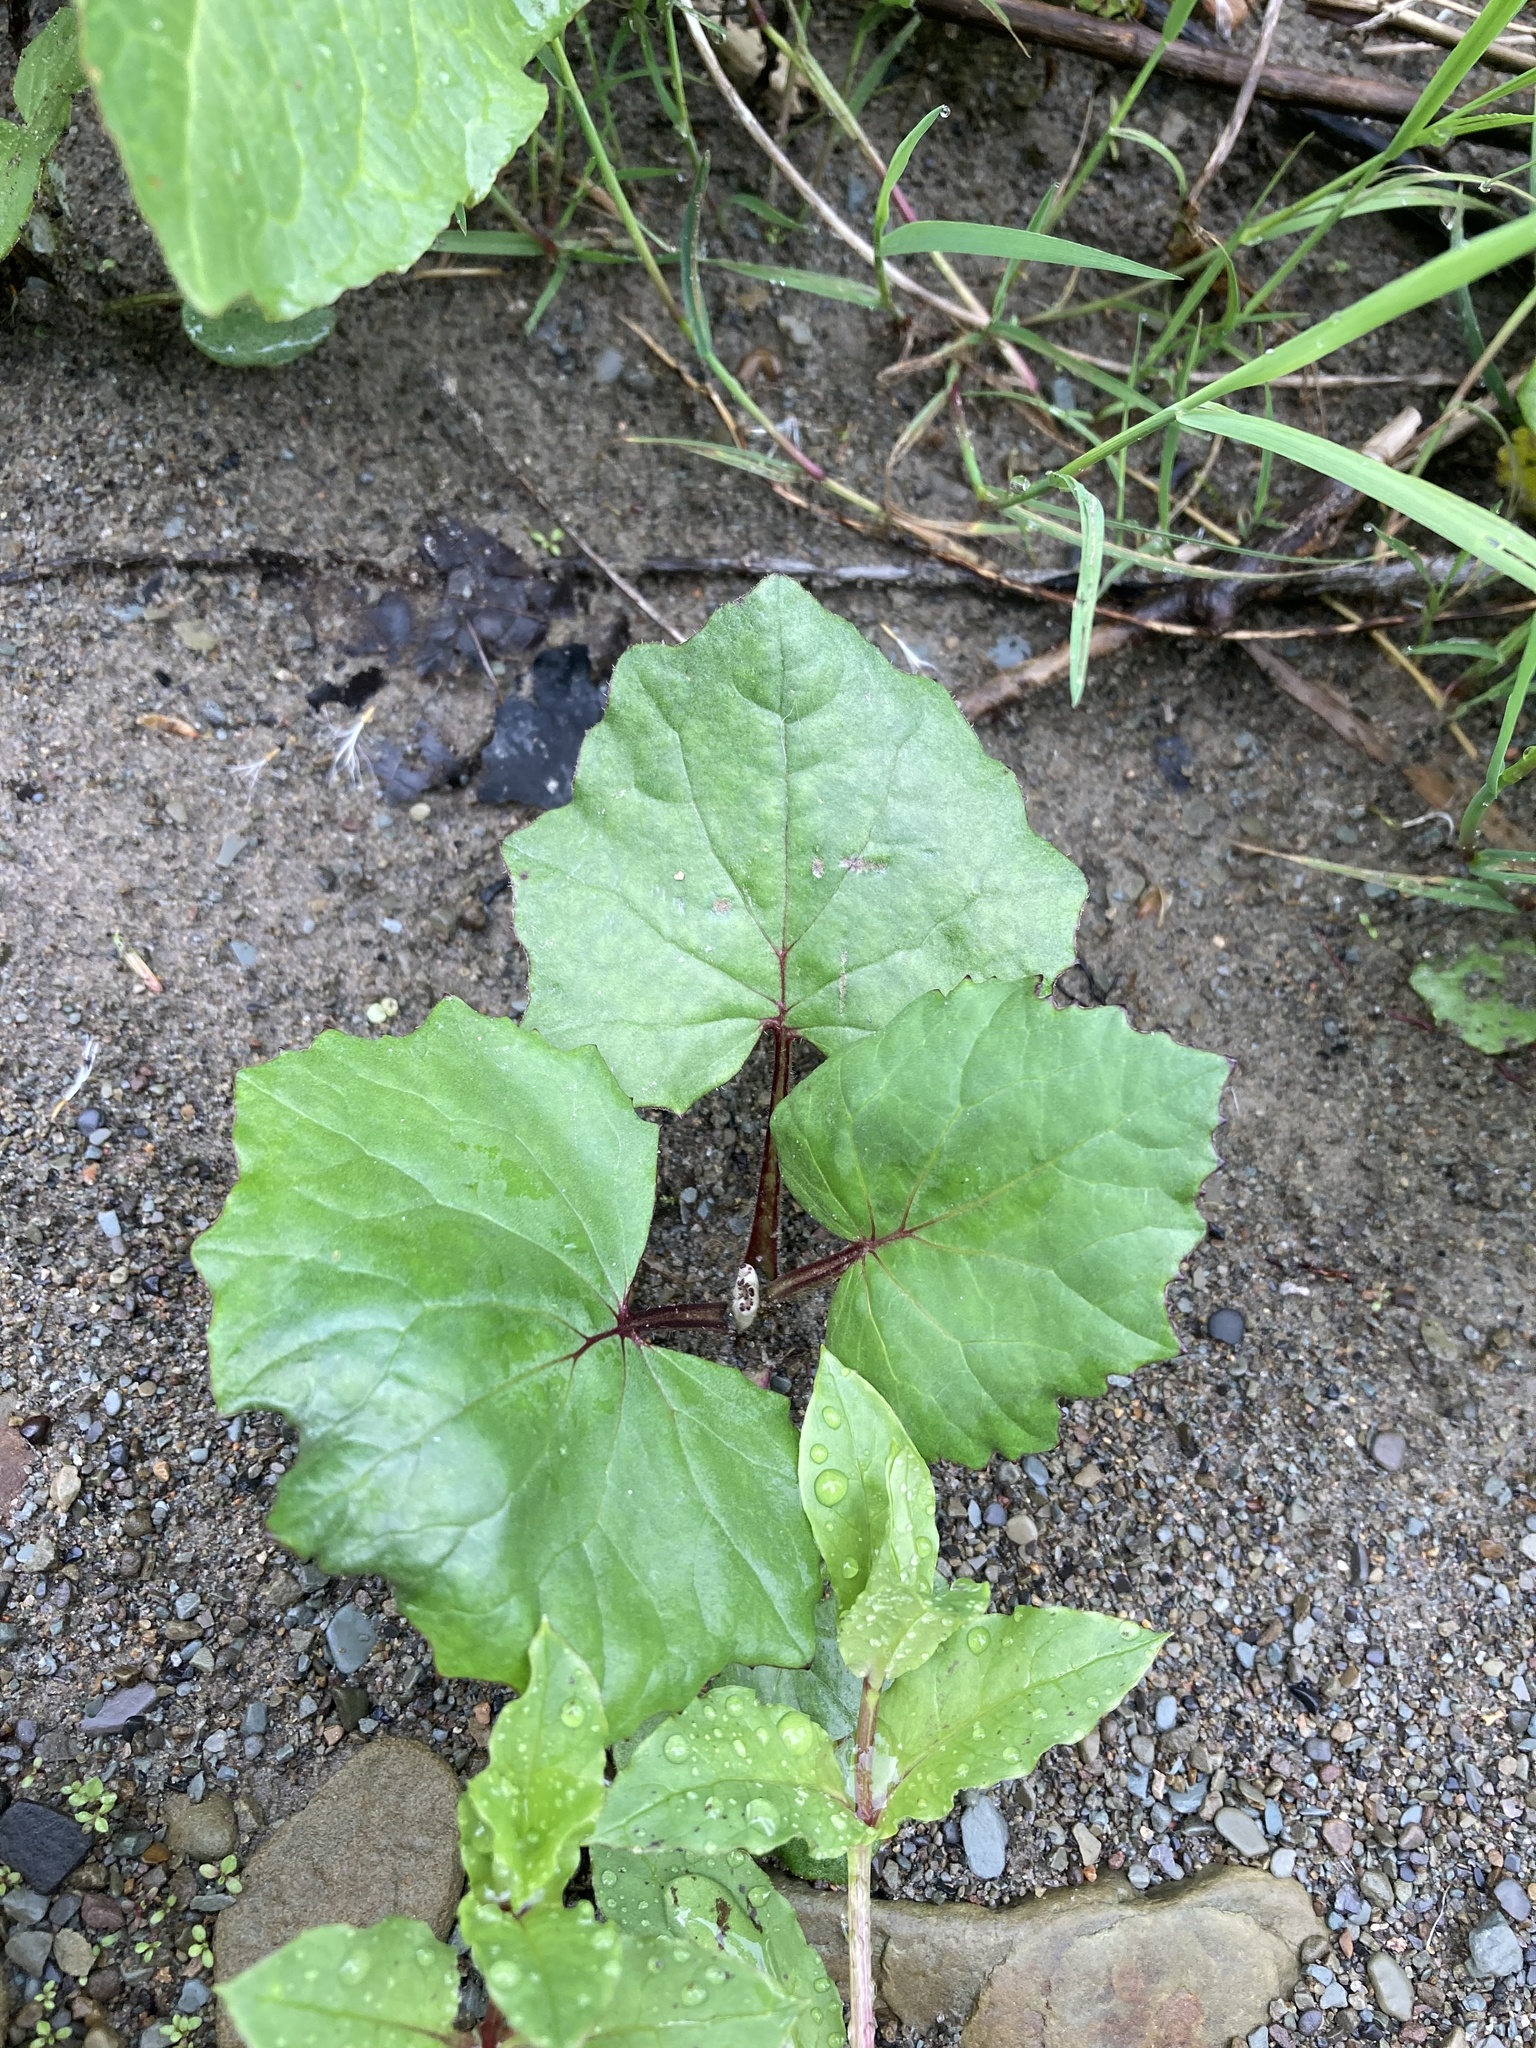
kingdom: Plantae
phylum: Tracheophyta
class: Magnoliopsida
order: Asterales
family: Asteraceae
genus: Tussilago
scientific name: Tussilago farfara
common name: Coltsfoot
